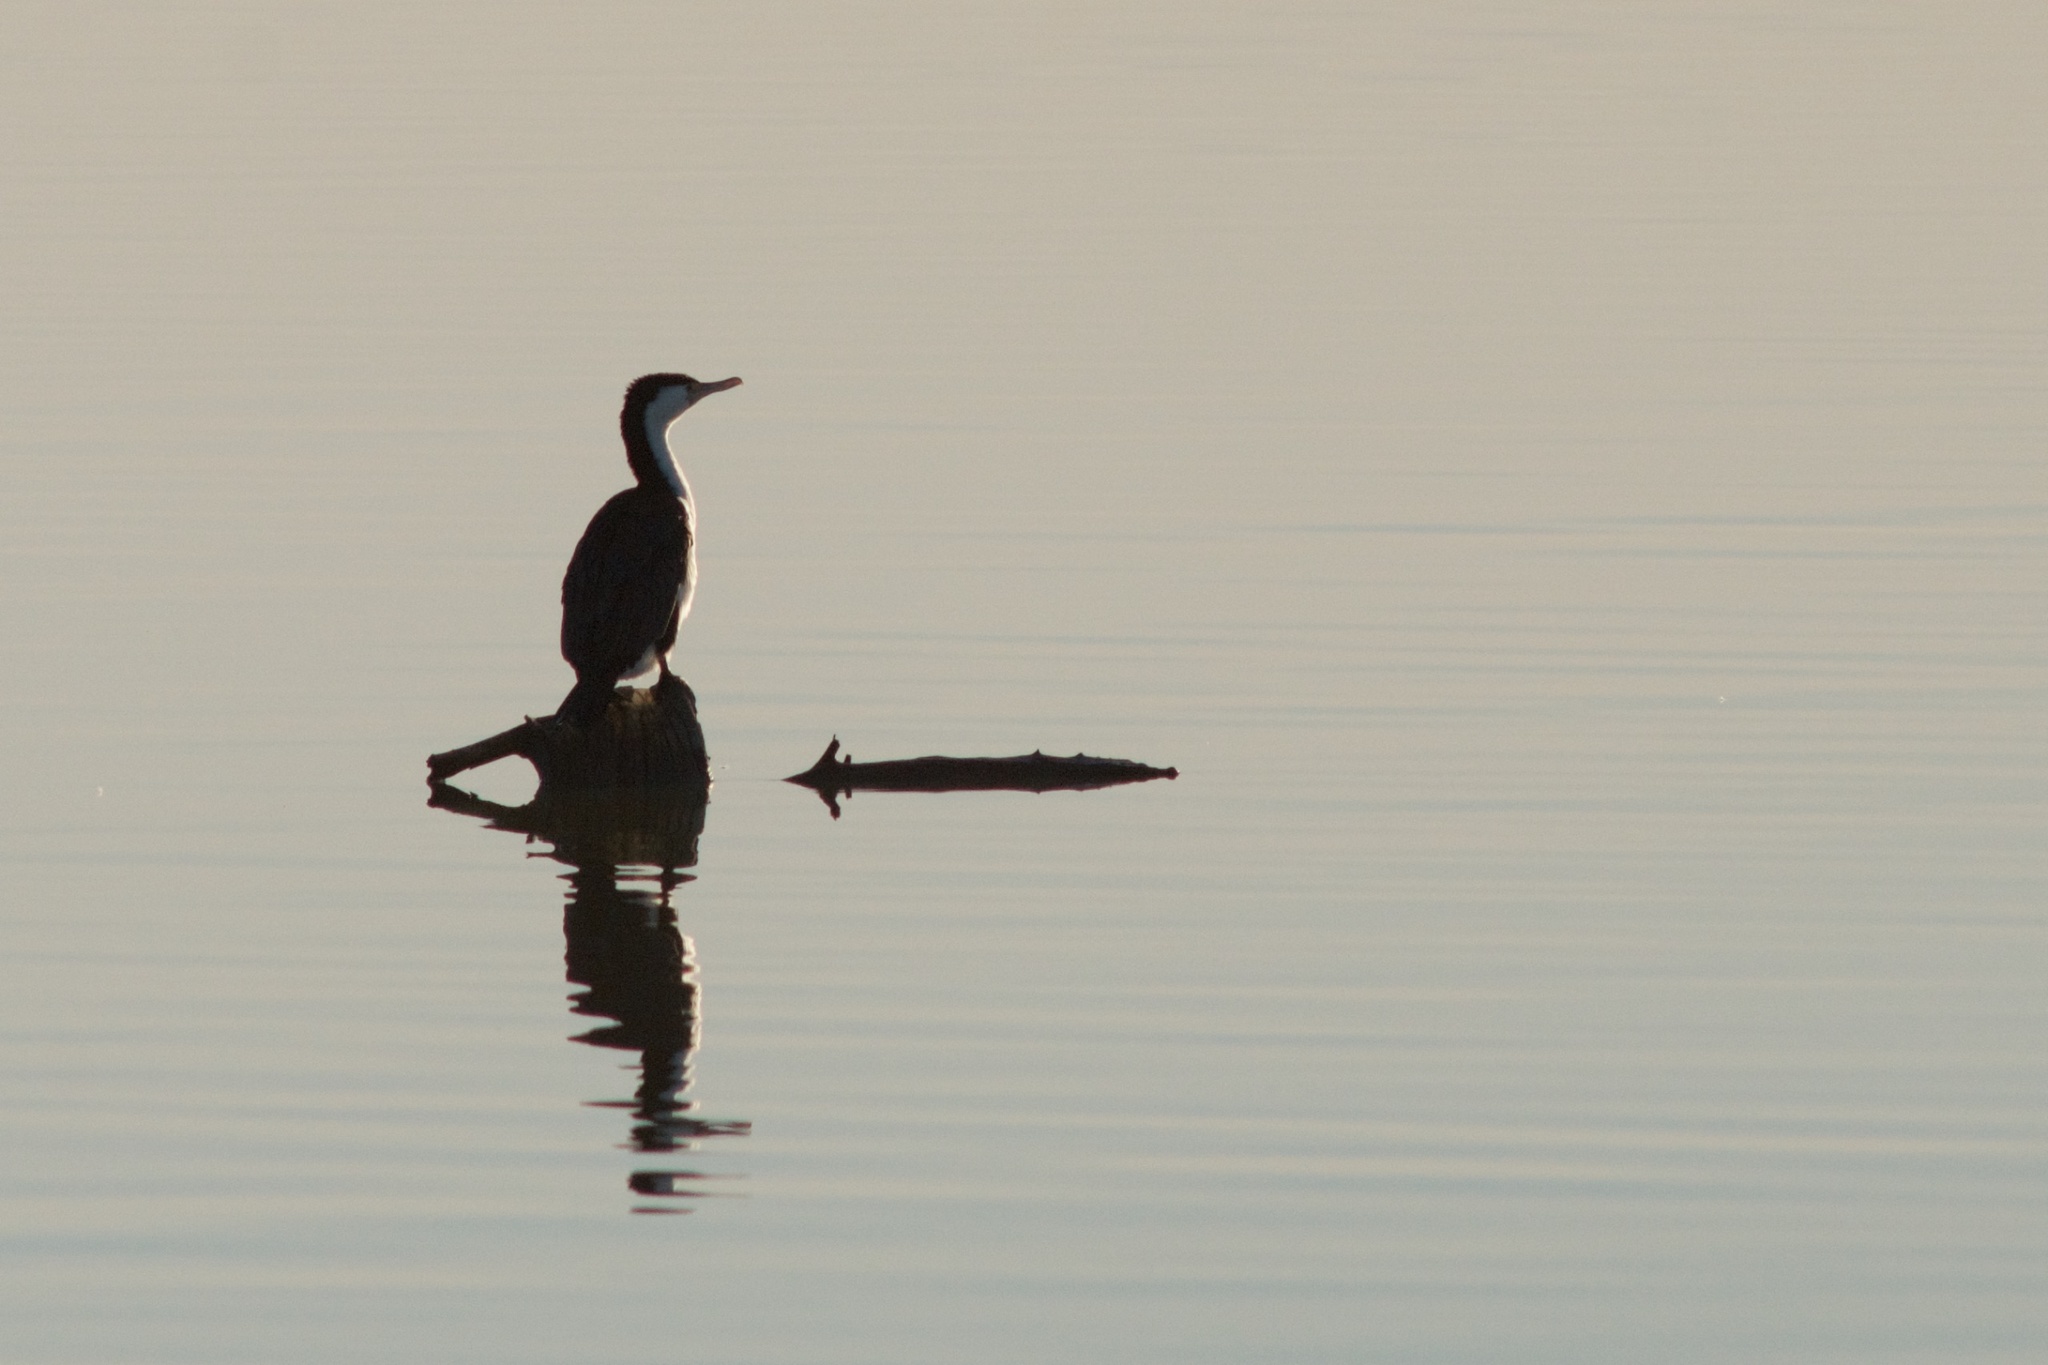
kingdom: Animalia
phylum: Chordata
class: Aves
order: Suliformes
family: Phalacrocoracidae
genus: Phalacrocorax
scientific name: Phalacrocorax varius
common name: Pied cormorant
